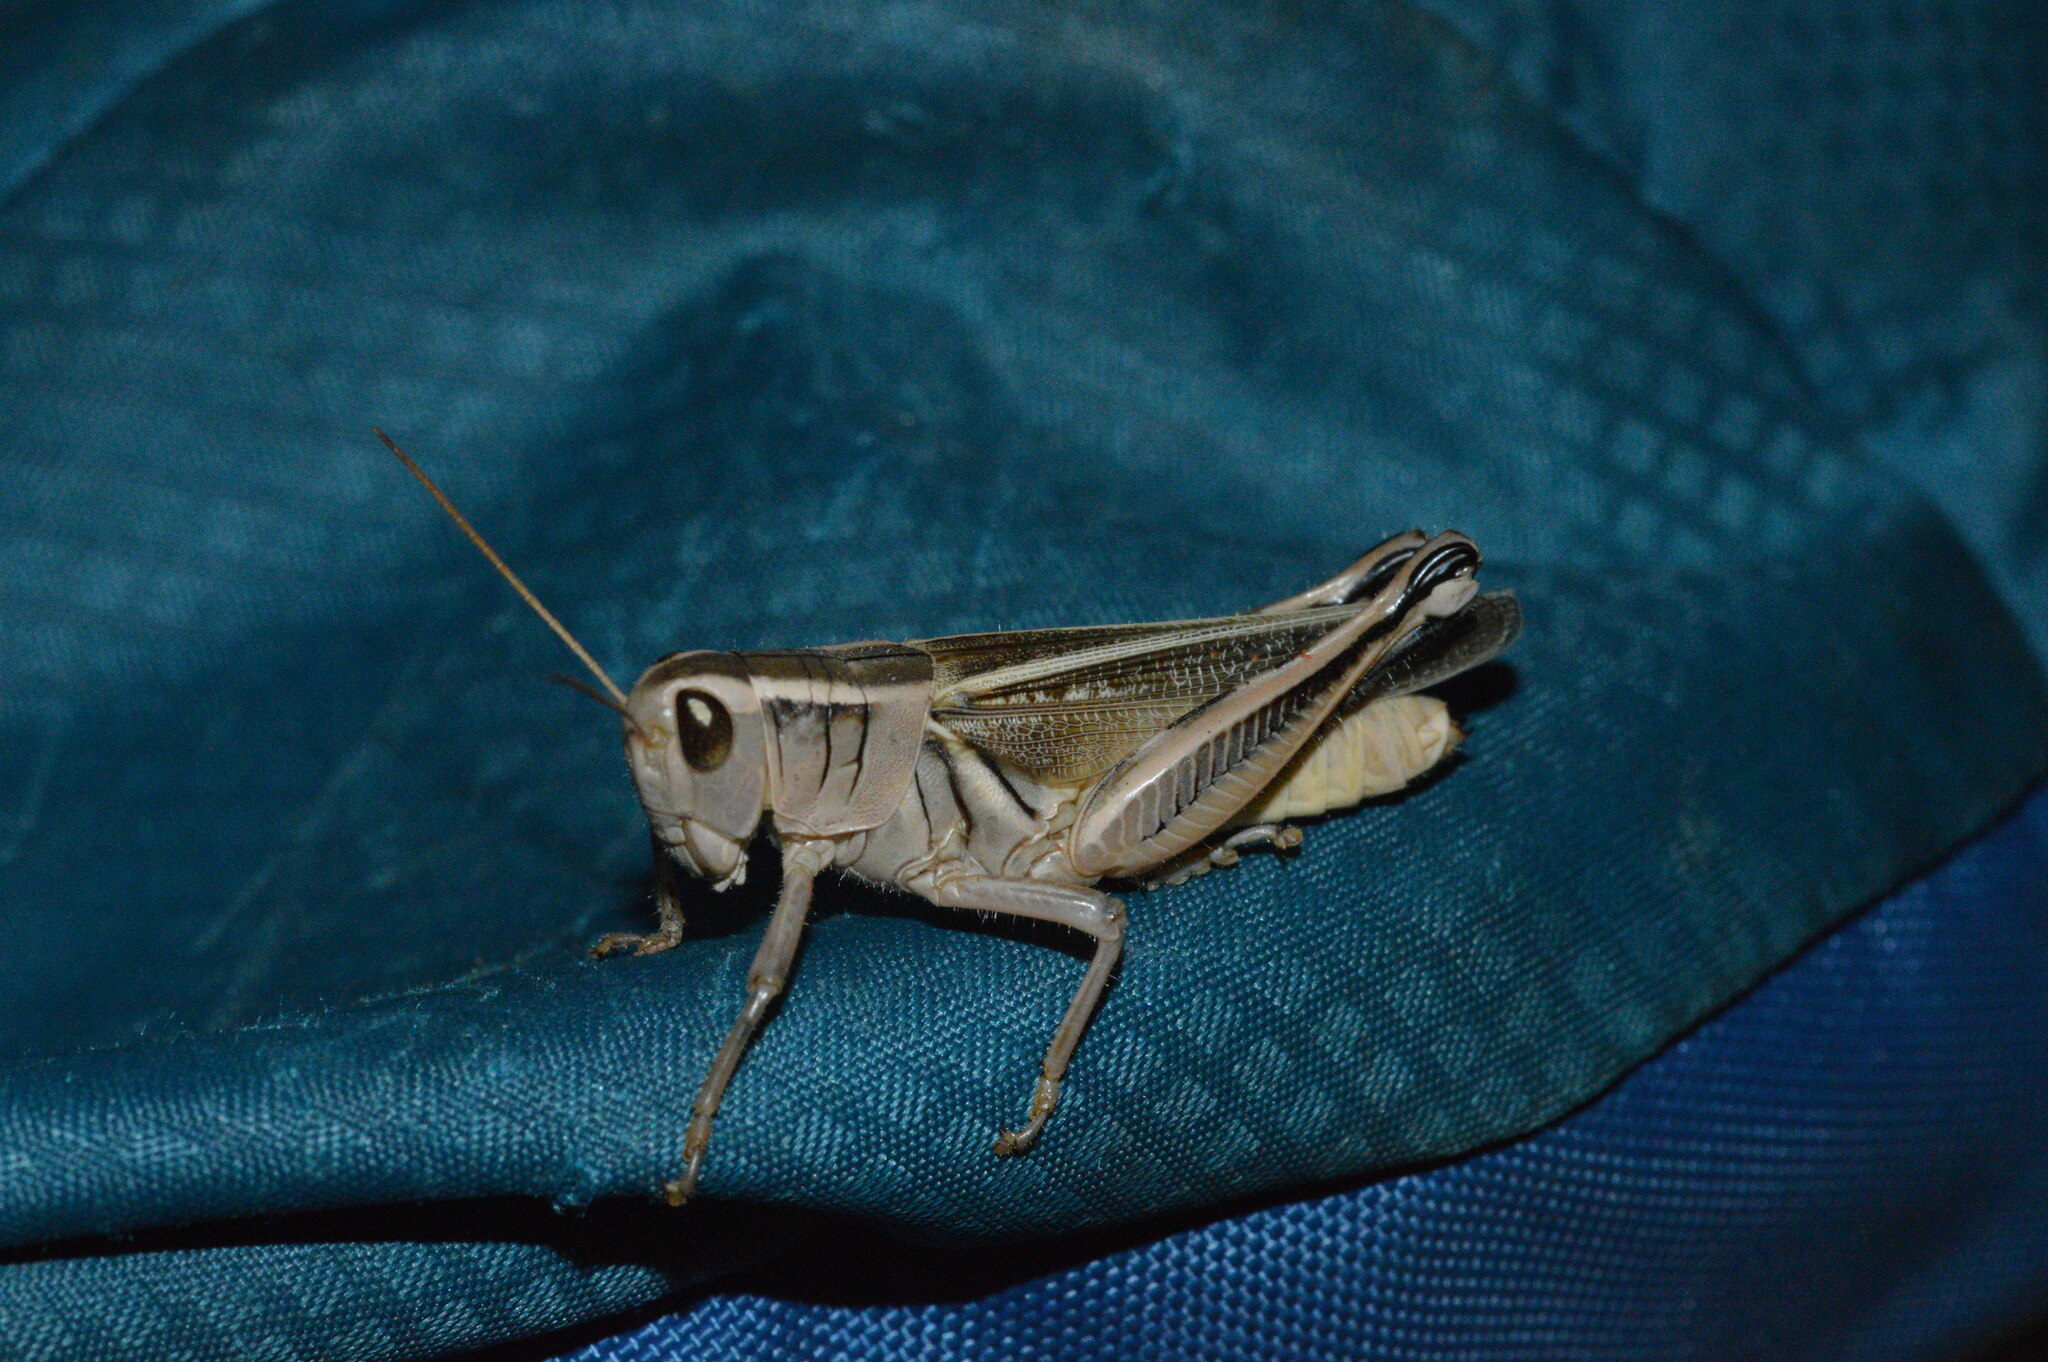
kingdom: Animalia
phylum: Arthropoda
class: Insecta
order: Orthoptera
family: Acrididae
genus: Melanoplus
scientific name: Melanoplus bivittatus
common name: Two-striped grasshopper
